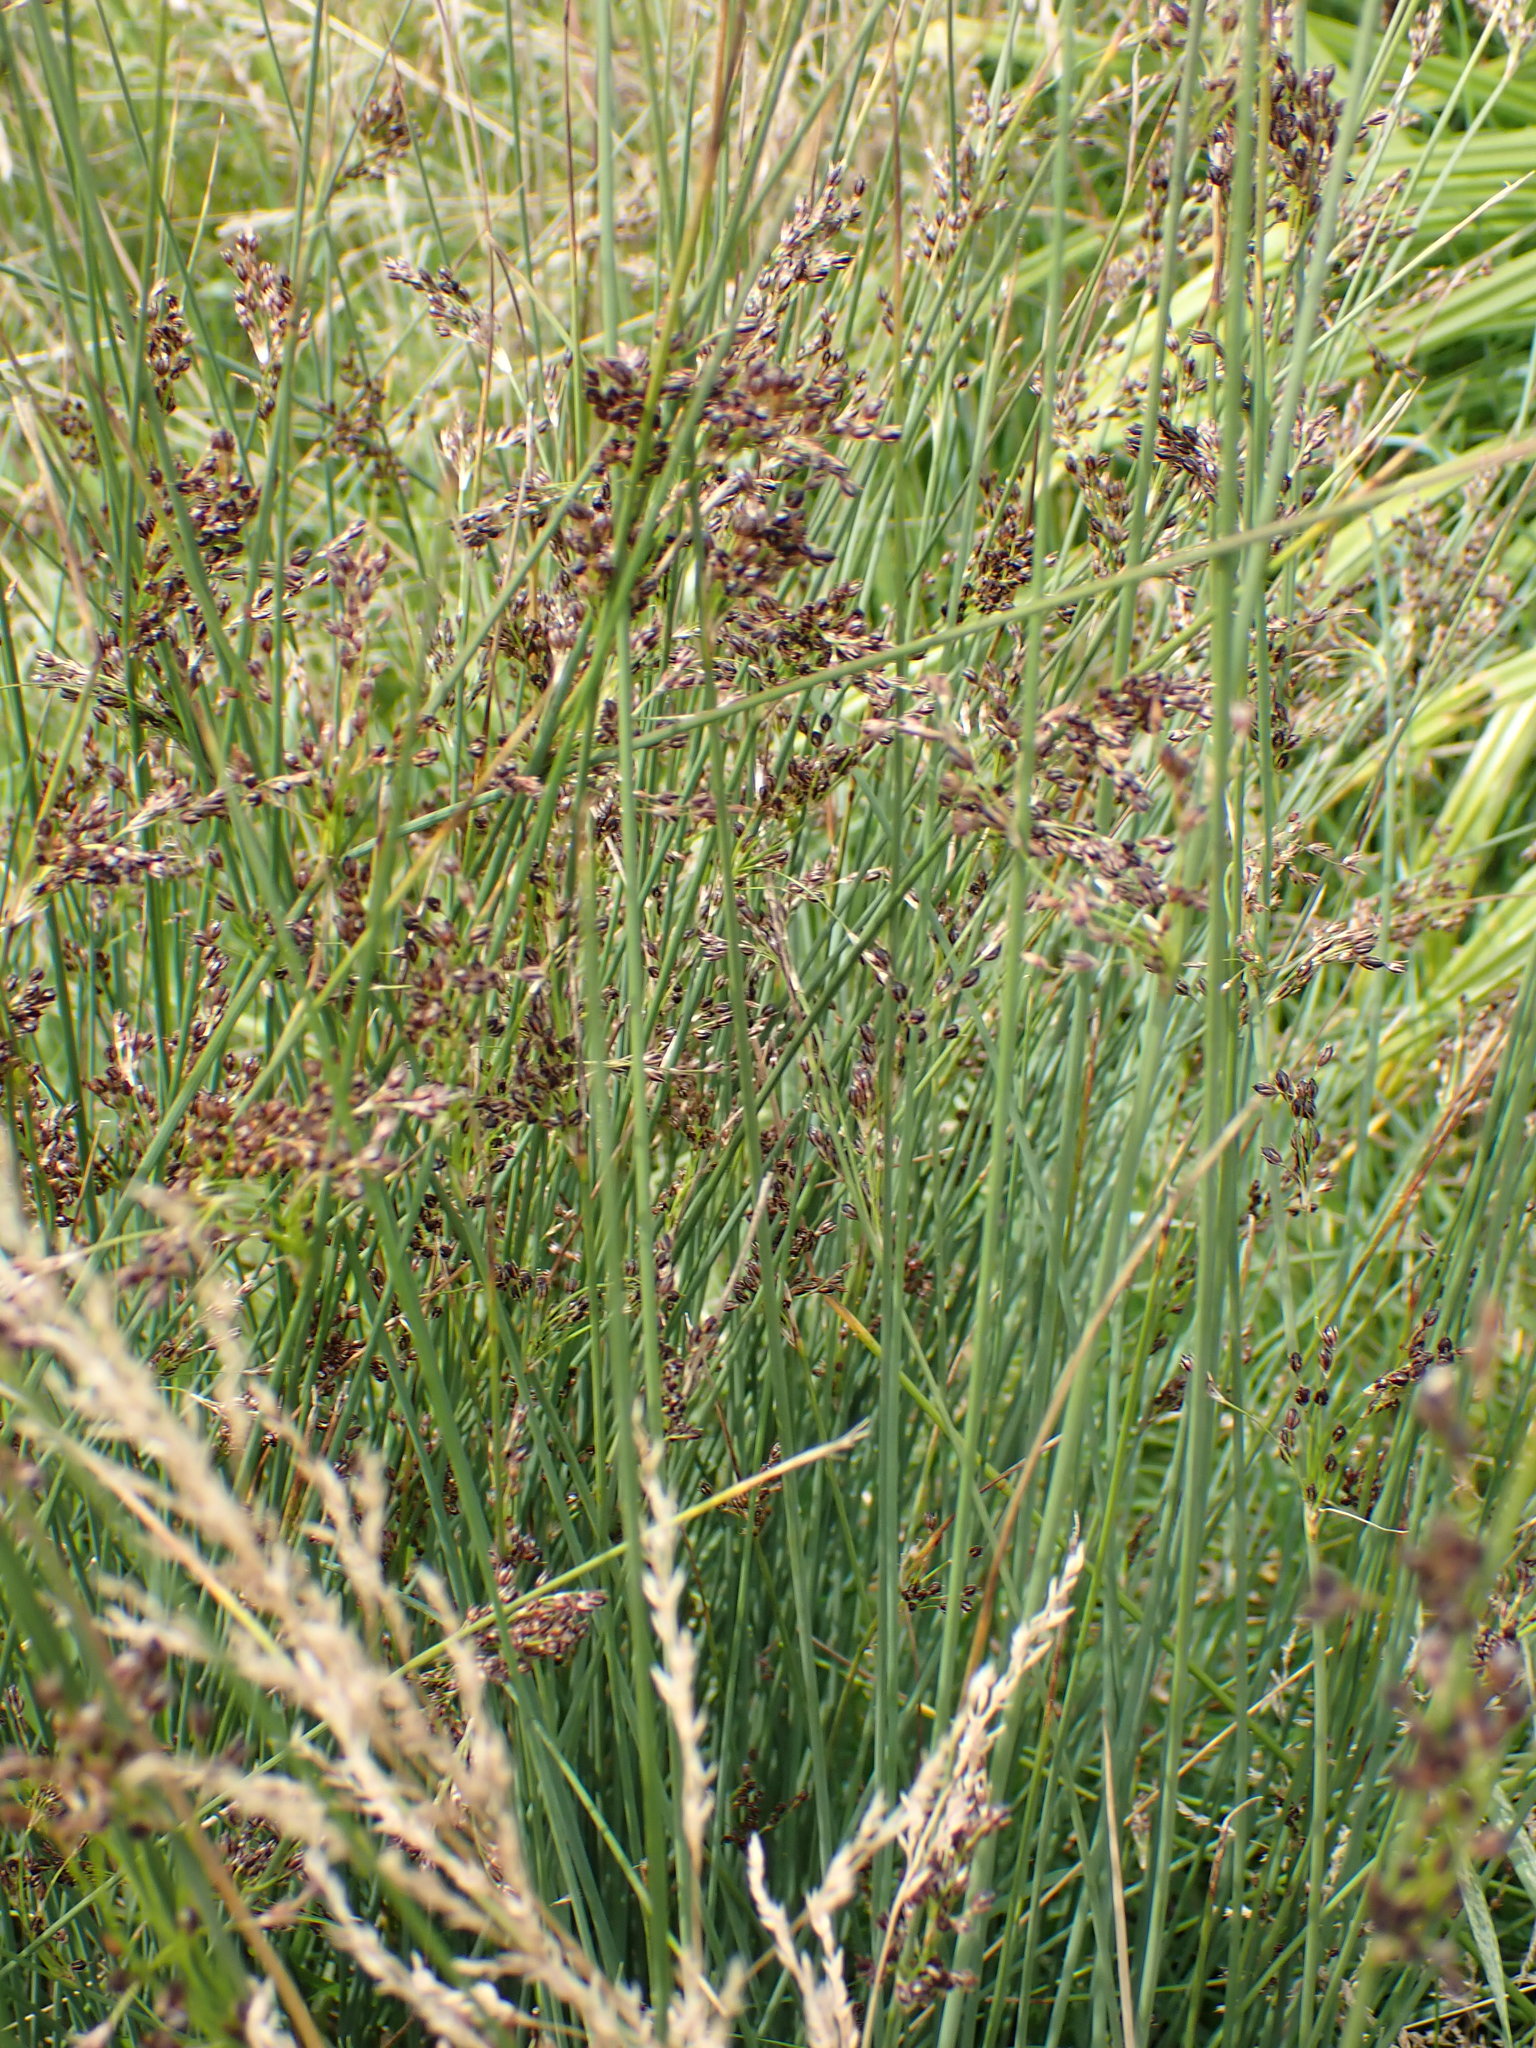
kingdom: Plantae
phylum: Tracheophyta
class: Liliopsida
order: Poales
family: Juncaceae
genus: Juncus
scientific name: Juncus inflexus
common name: Hard rush
